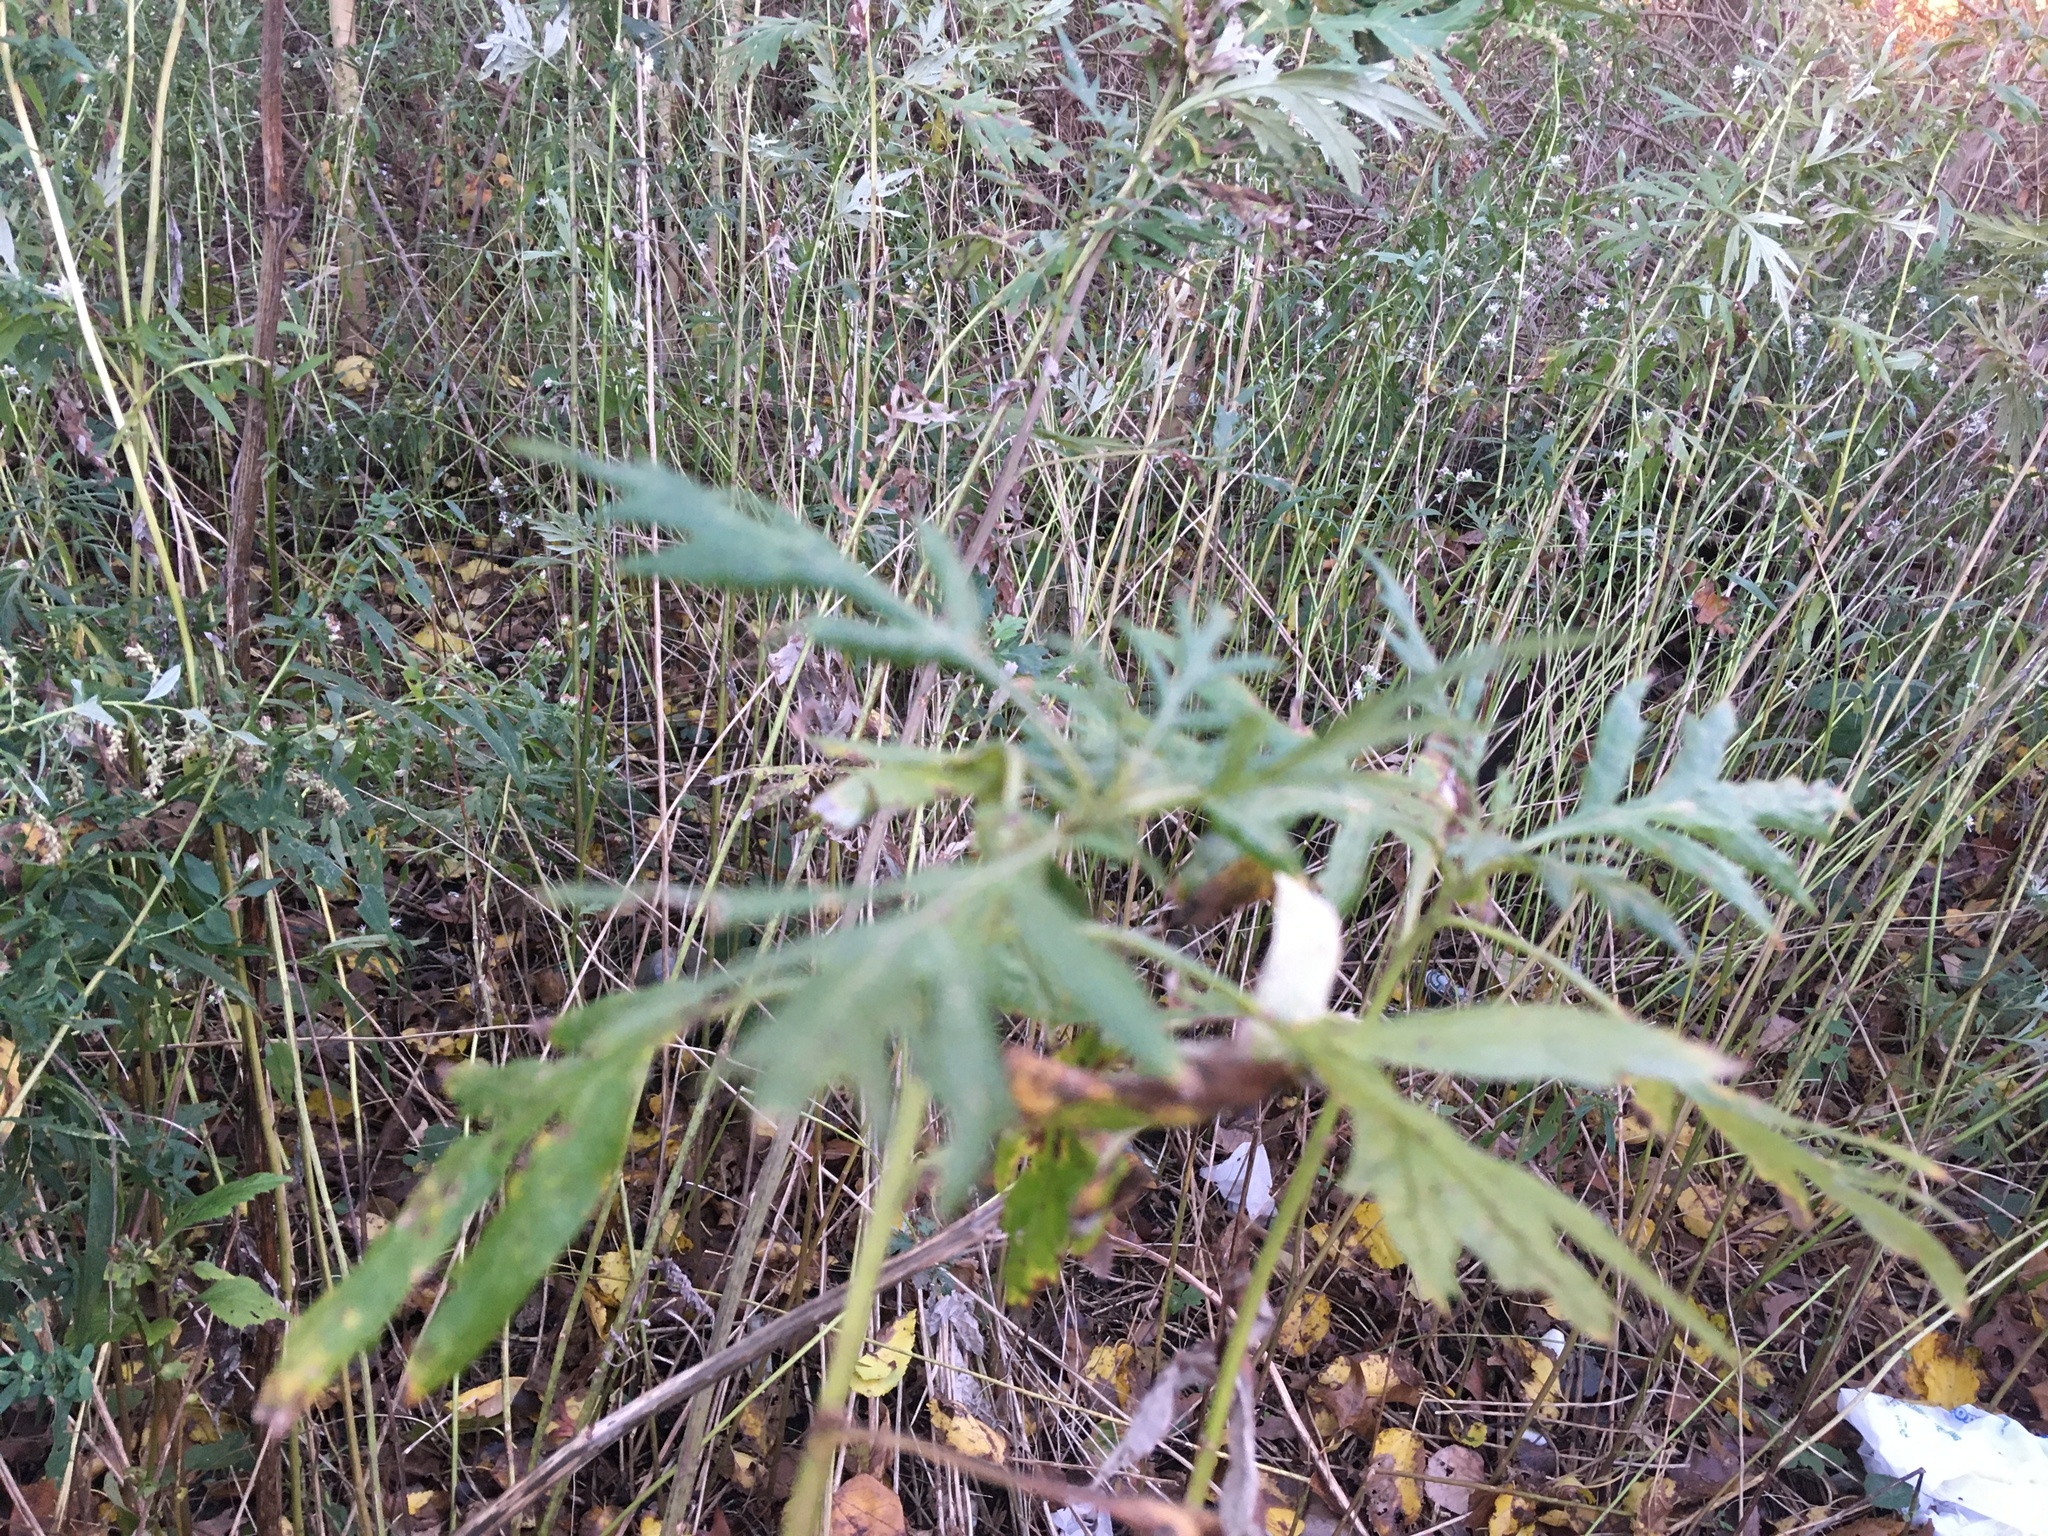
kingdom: Plantae
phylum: Tracheophyta
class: Magnoliopsida
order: Asterales
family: Asteraceae
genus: Artemisia
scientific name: Artemisia vulgaris
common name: Mugwort
